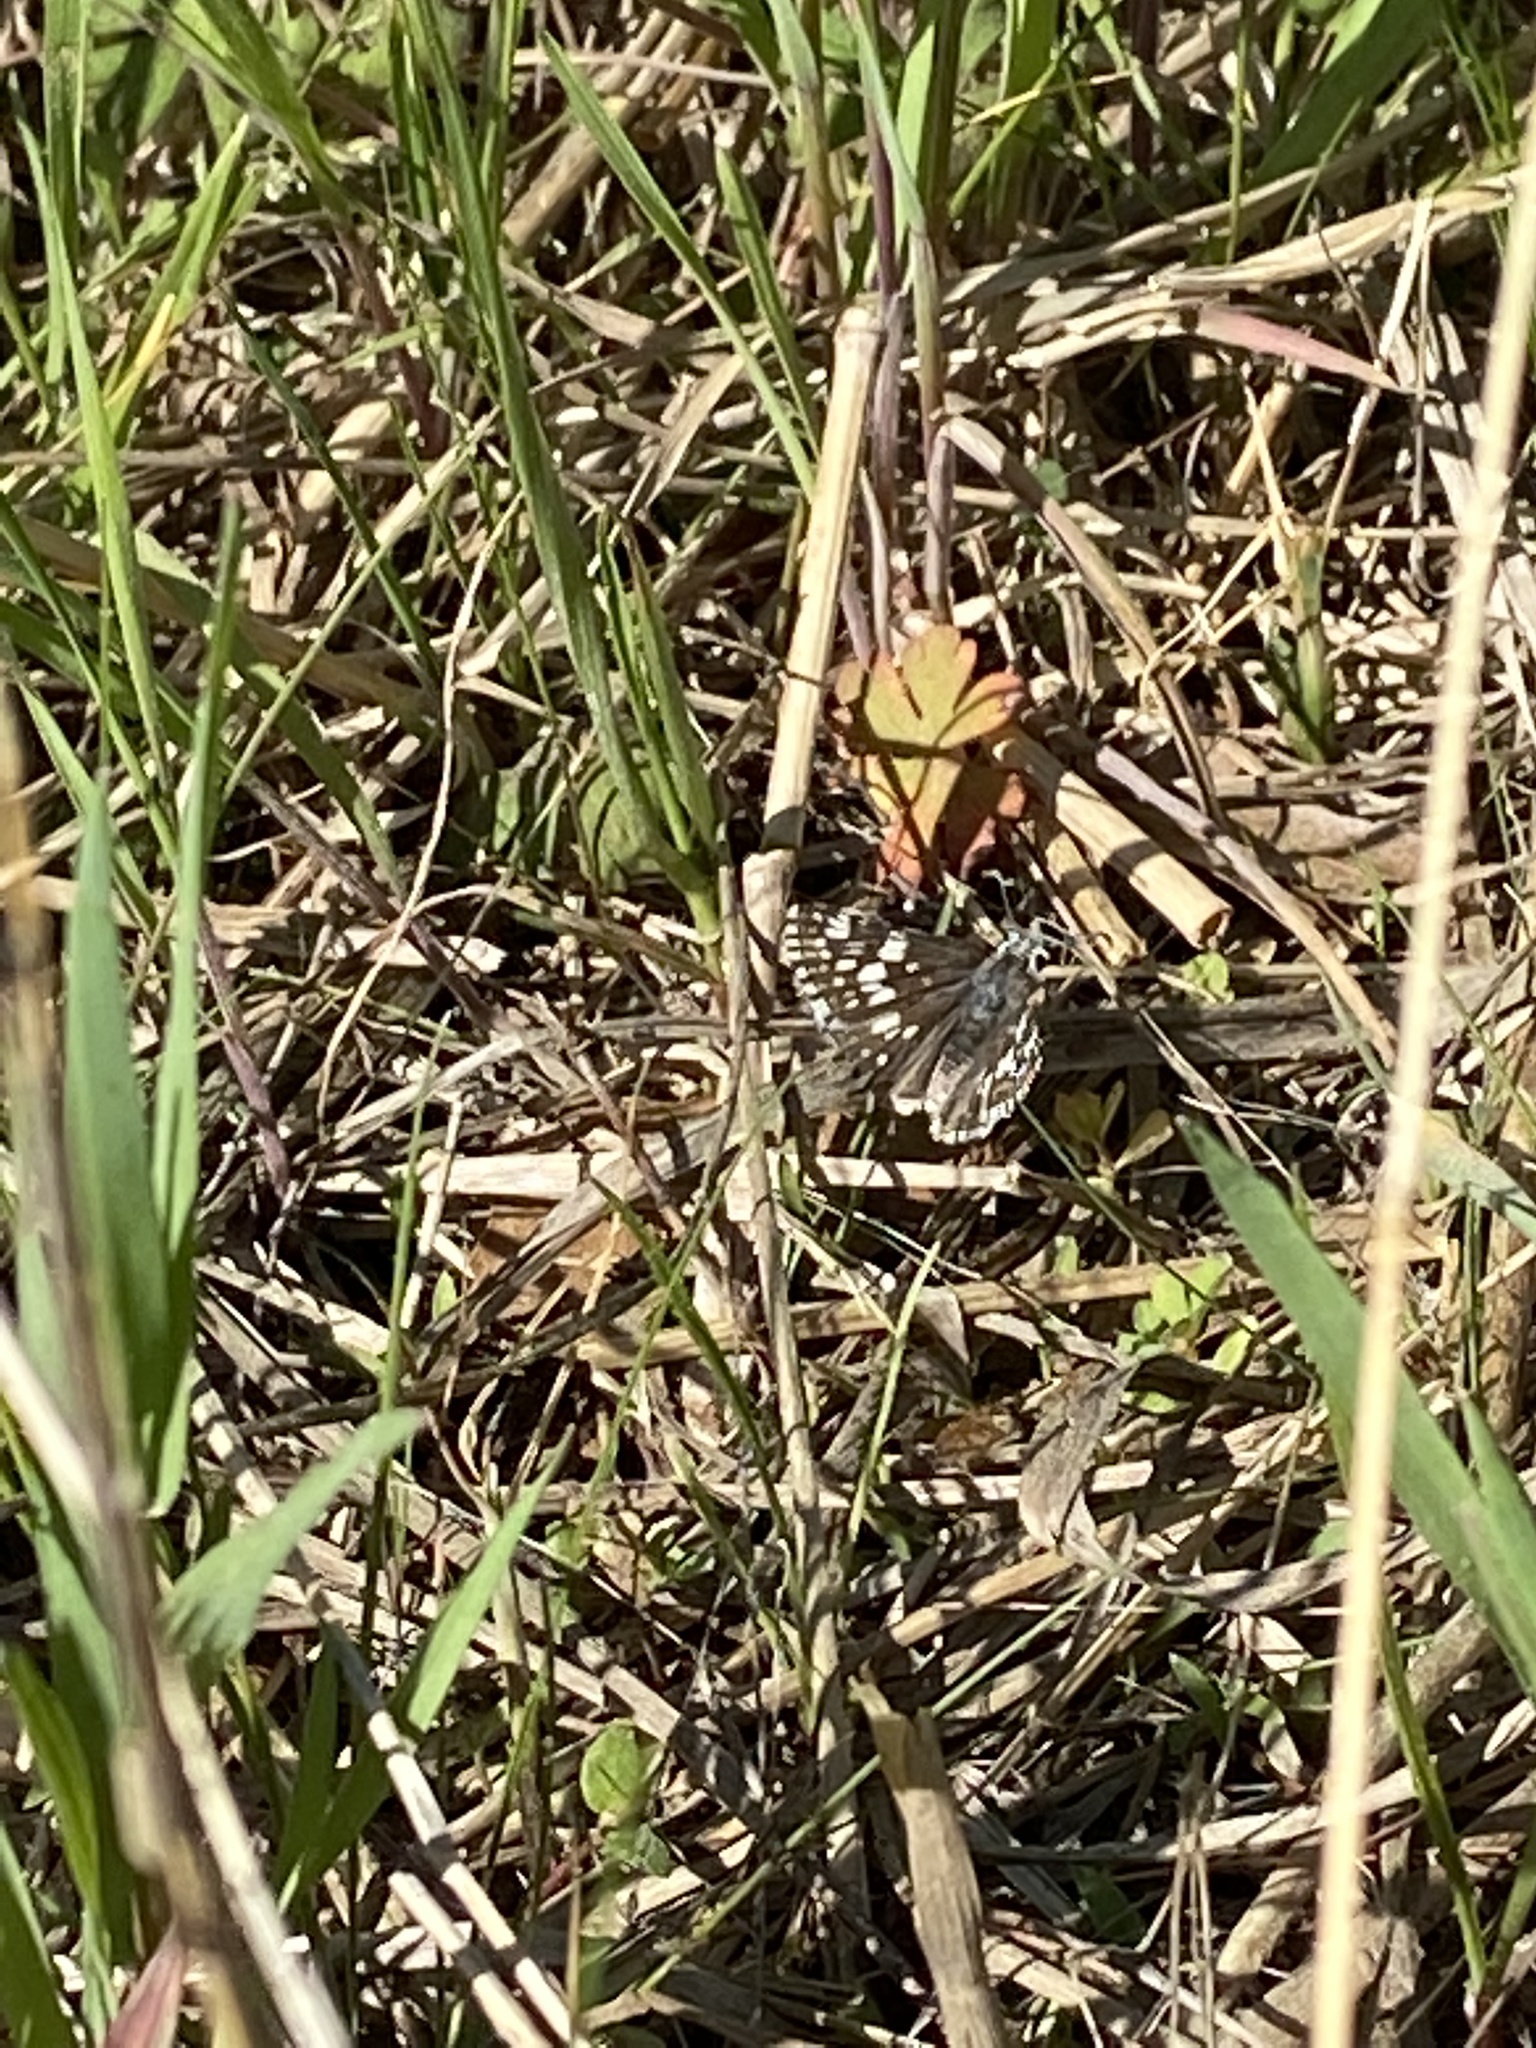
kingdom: Animalia
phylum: Arthropoda
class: Insecta
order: Lepidoptera
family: Hesperiidae
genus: Burnsius
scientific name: Burnsius communis
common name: Common checkered-skipper
